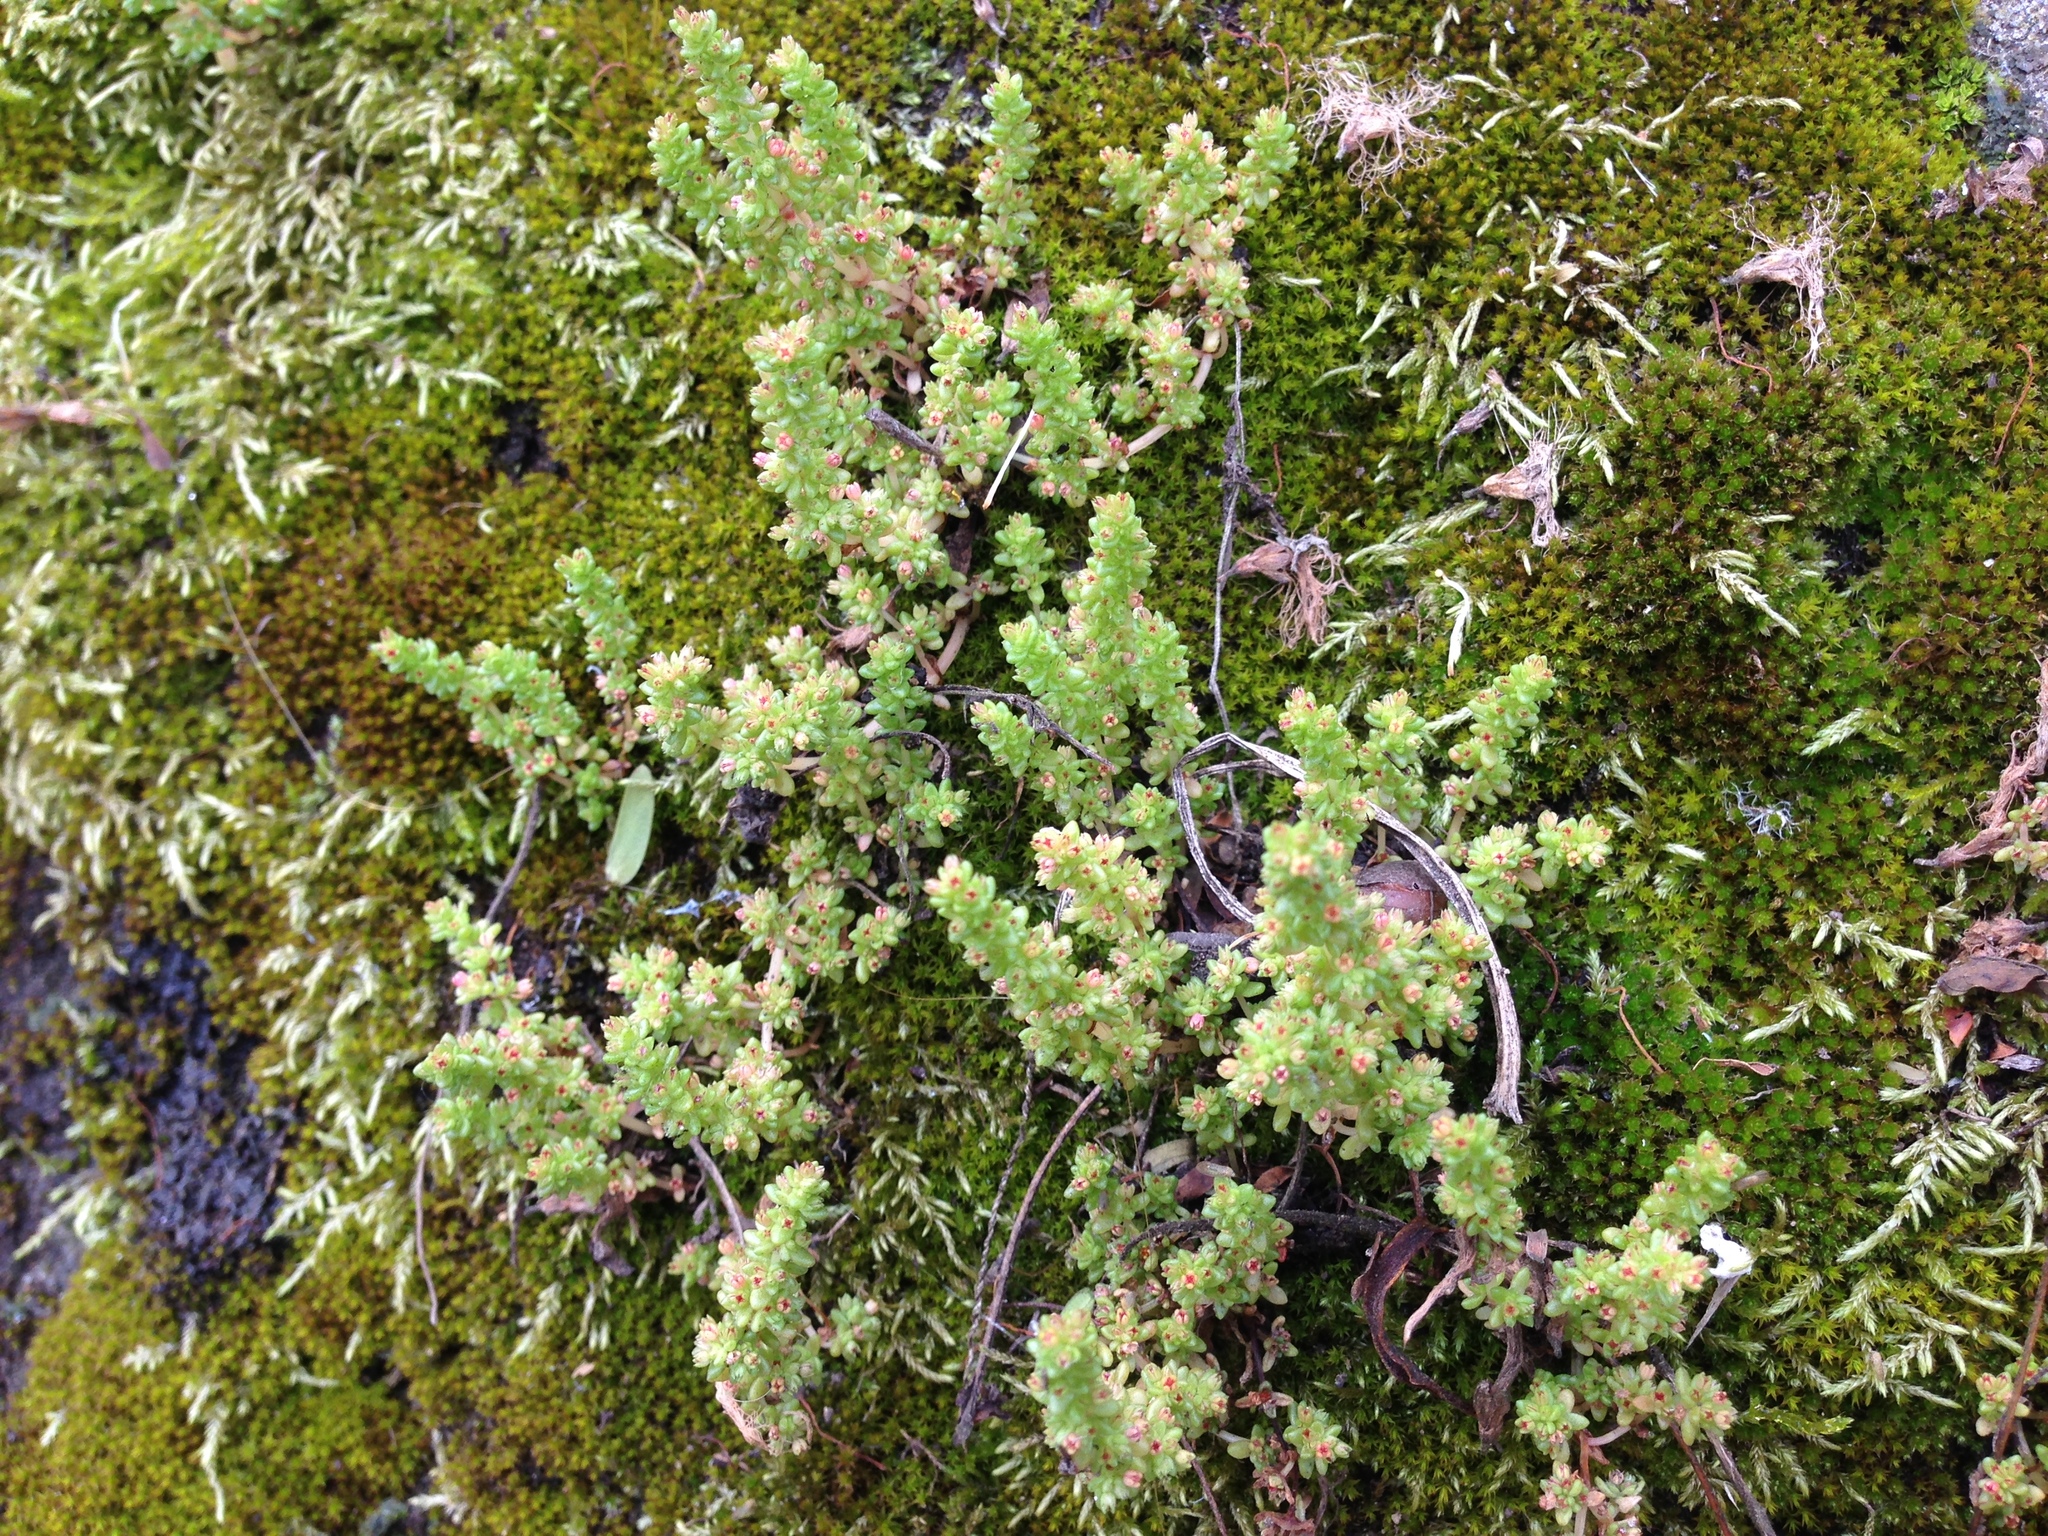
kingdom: Plantae
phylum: Tracheophyta
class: Magnoliopsida
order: Saxifragales
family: Crassulaceae
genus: Crassula
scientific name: Crassula connata
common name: Erect pygmyweed
